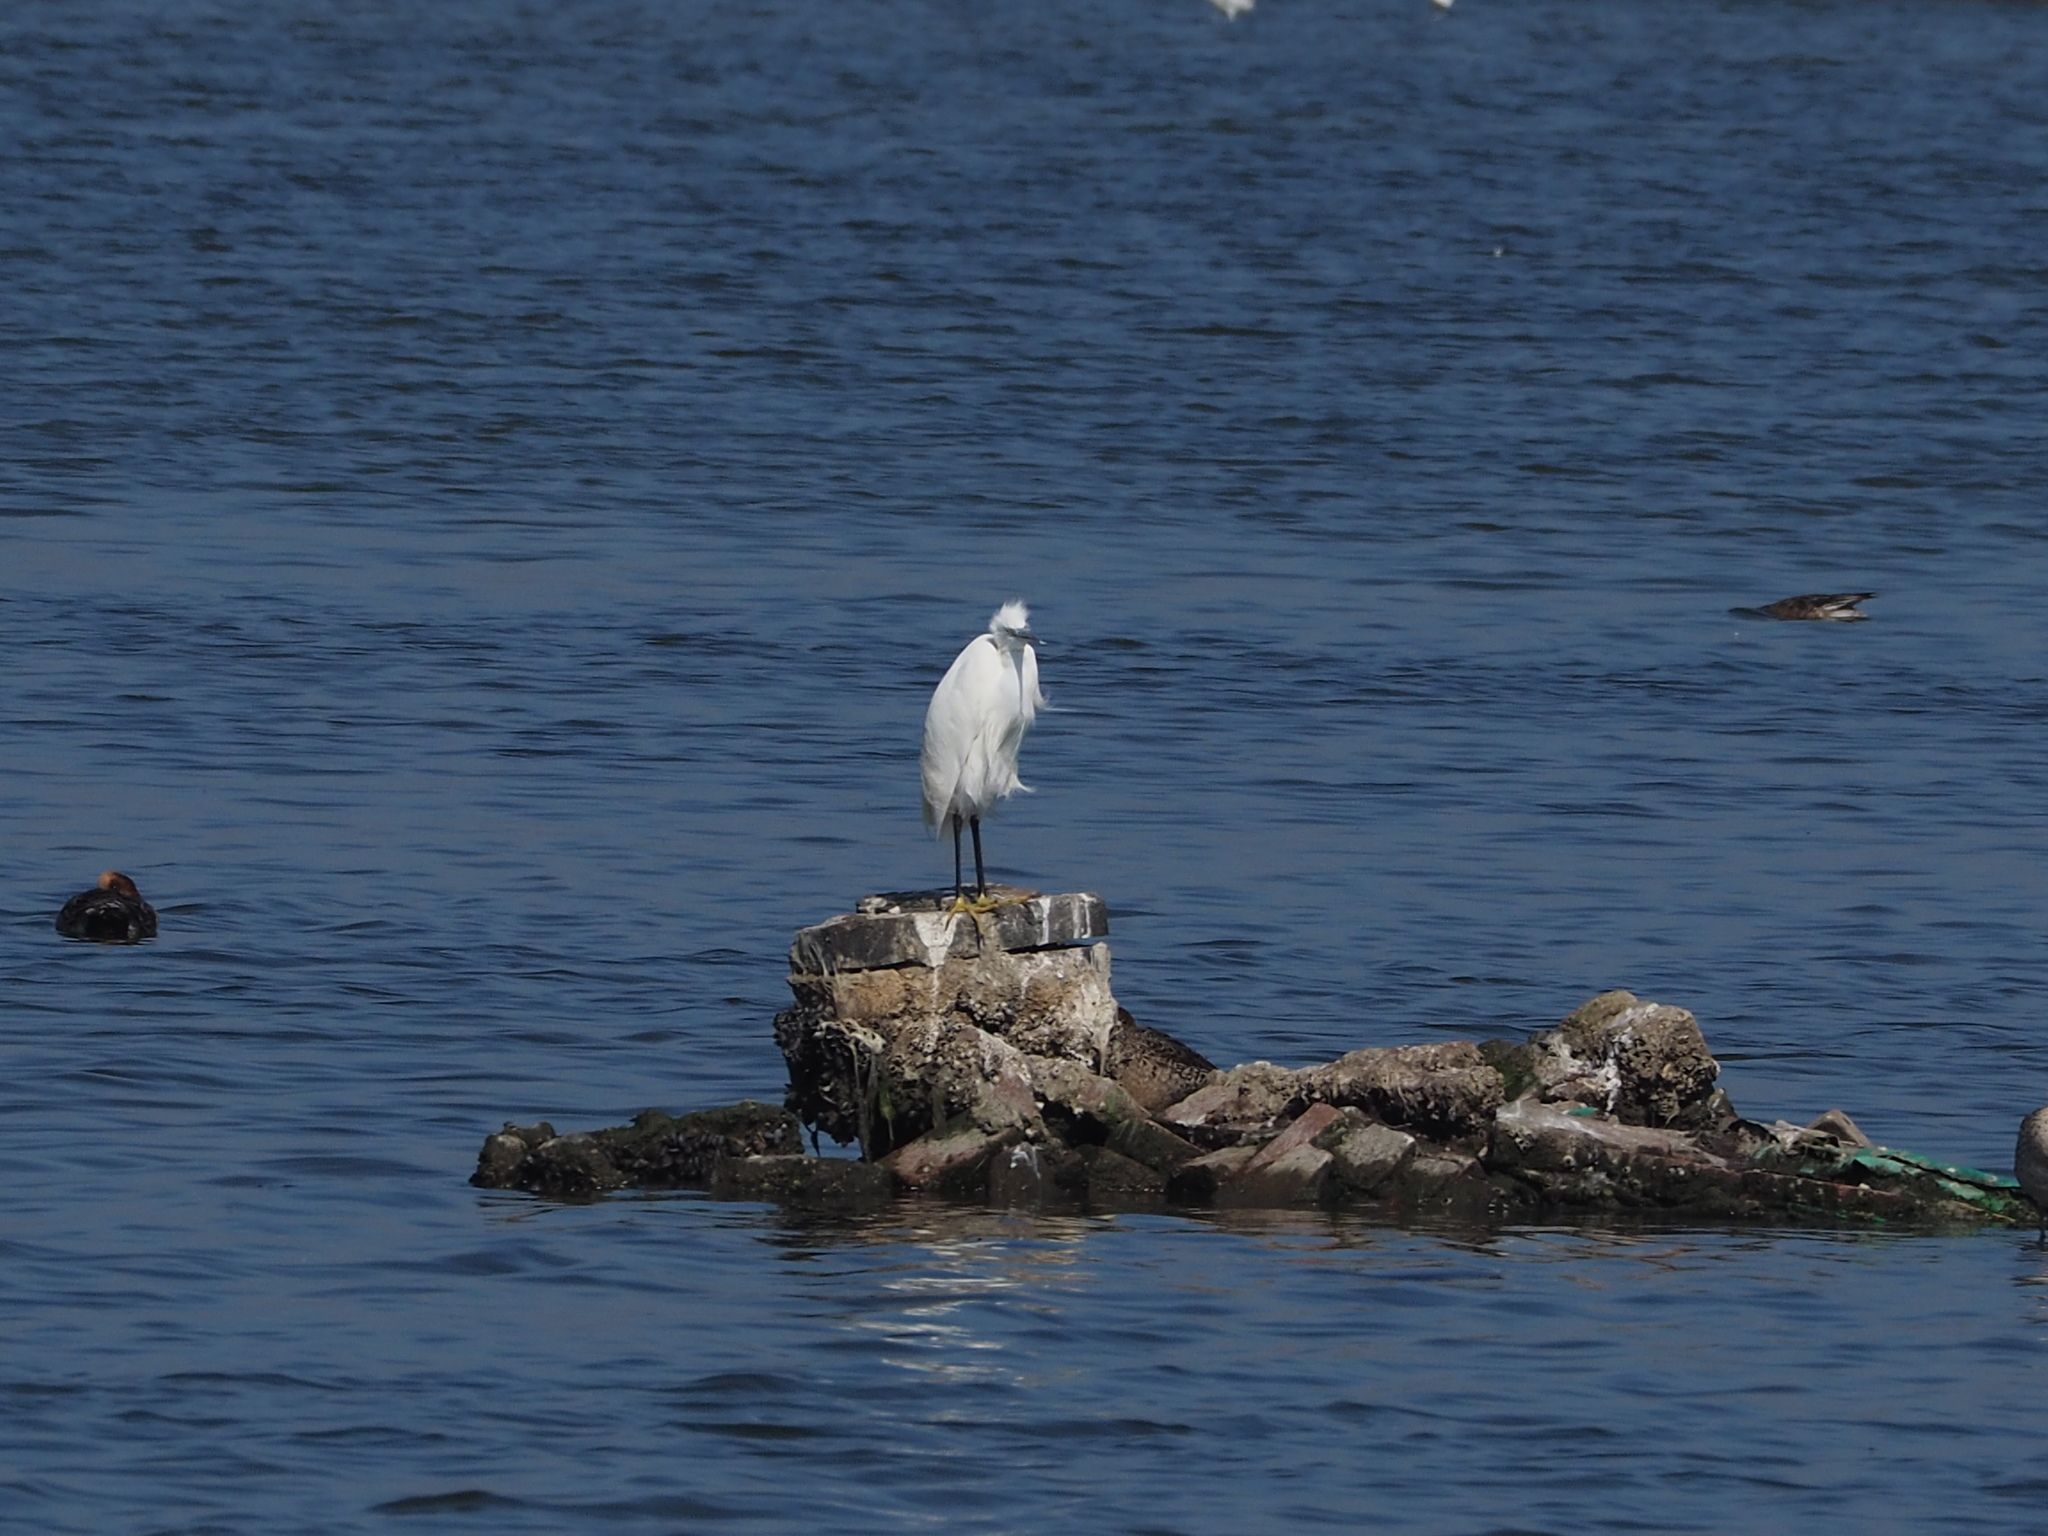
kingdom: Animalia
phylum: Chordata
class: Aves
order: Pelecaniformes
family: Ardeidae
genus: Egretta
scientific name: Egretta garzetta
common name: Little egret
